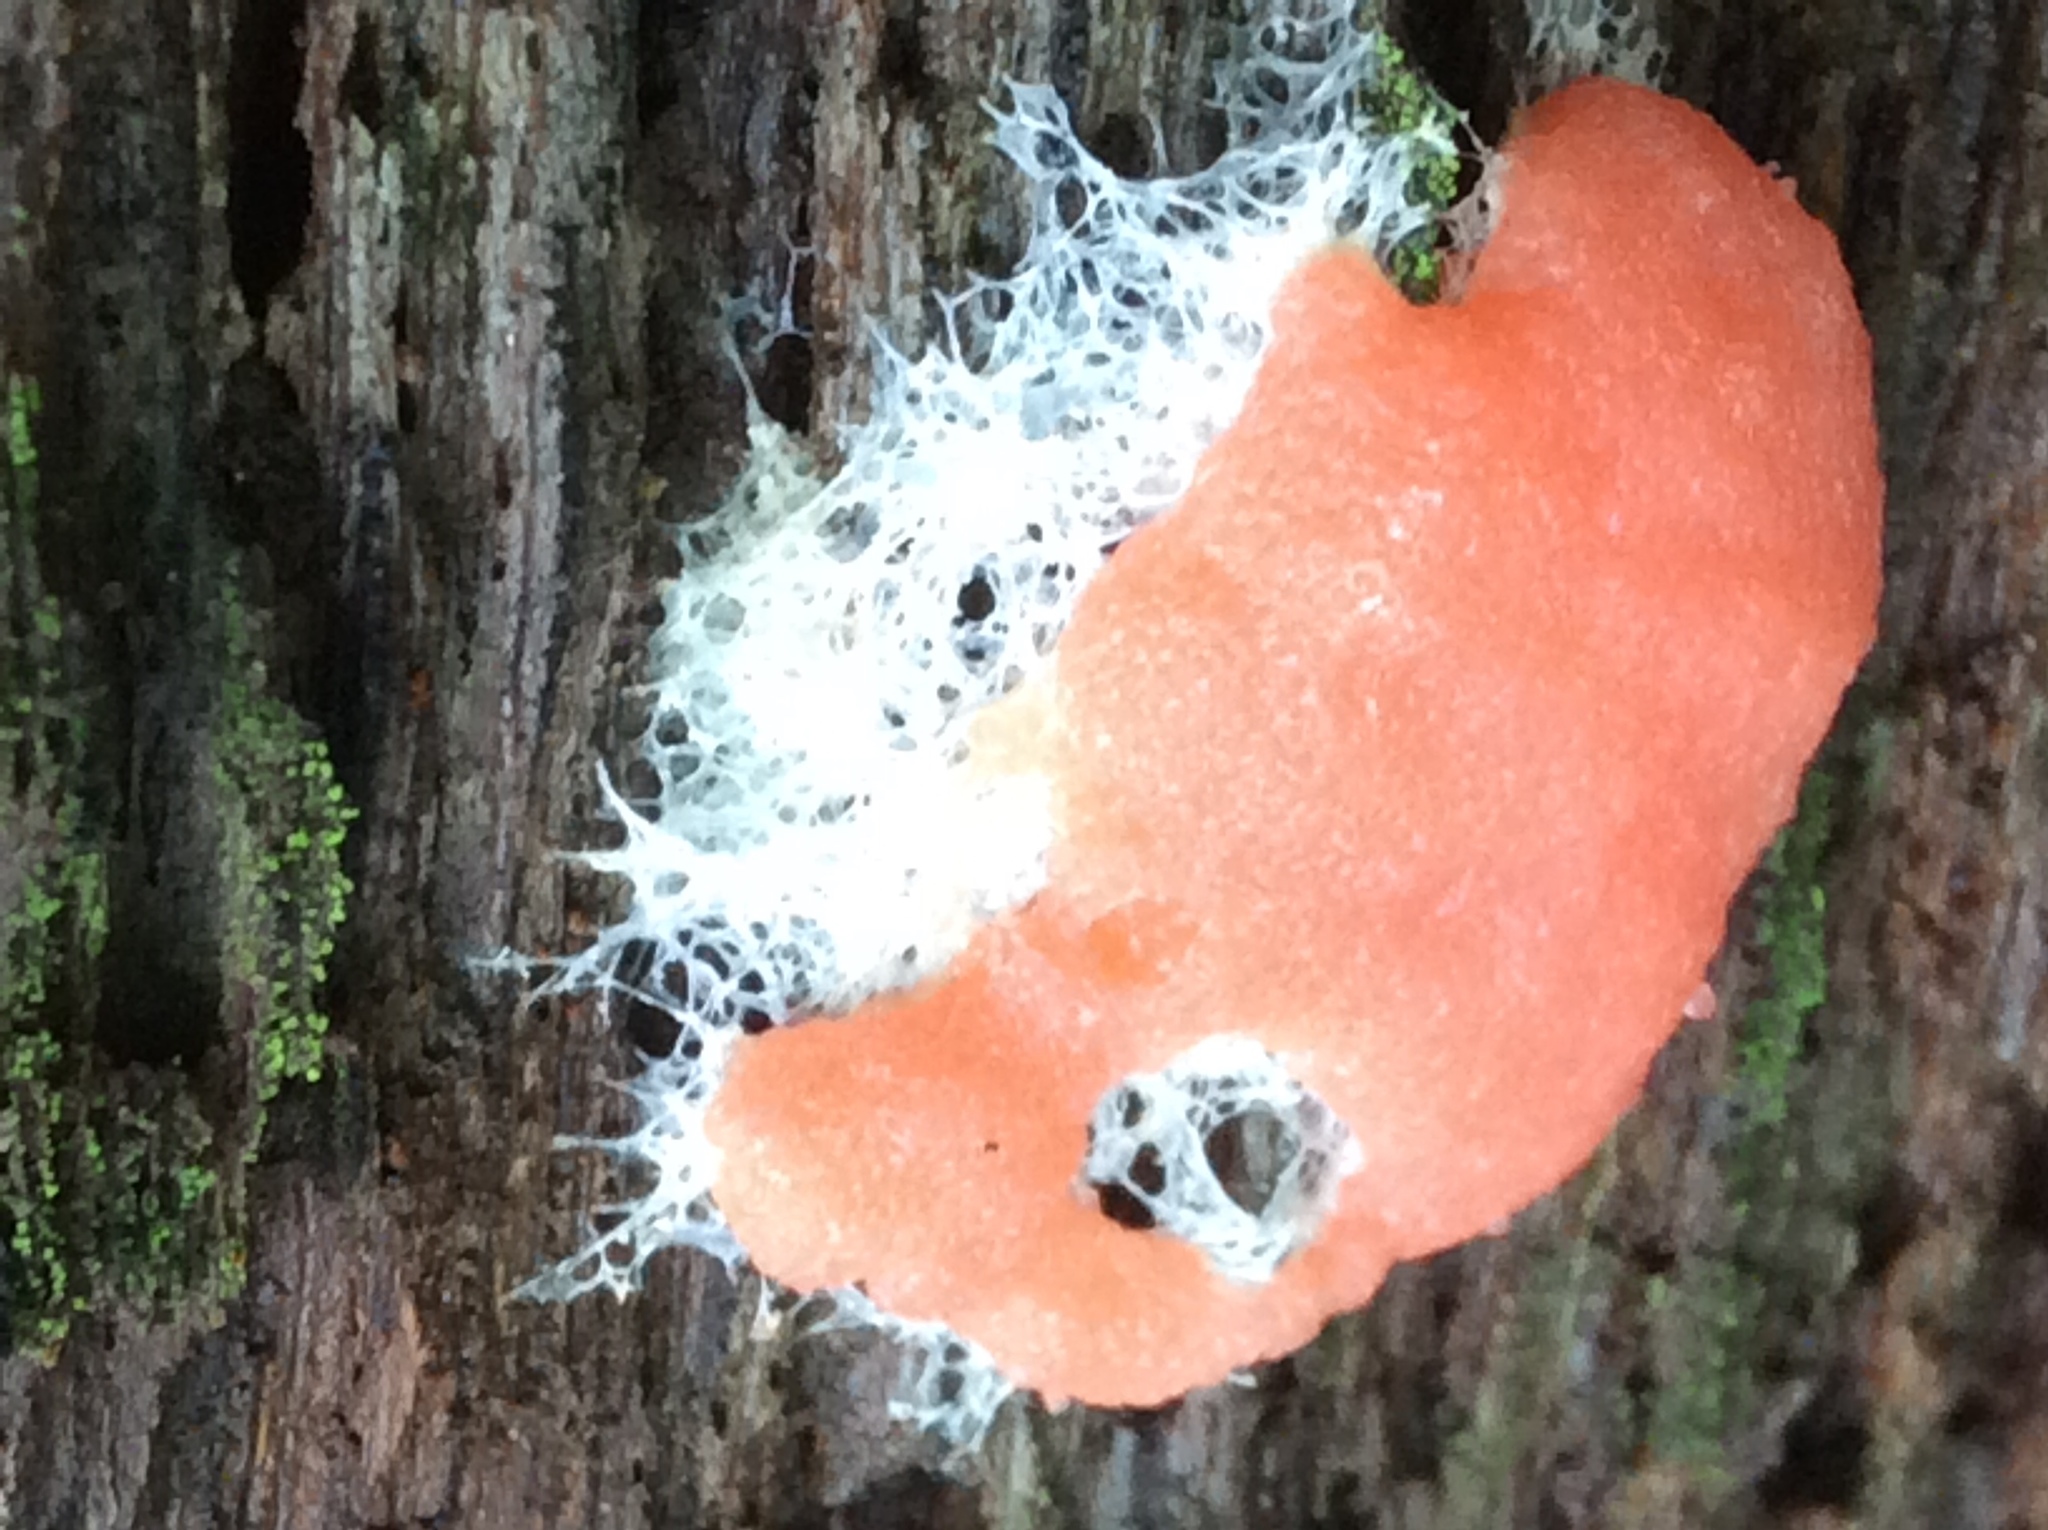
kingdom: Protozoa
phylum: Mycetozoa
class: Myxomycetes
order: Cribrariales
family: Tubiferaceae
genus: Tubifera
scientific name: Tubifera ferruginosa
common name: Red raspberry slime mold
